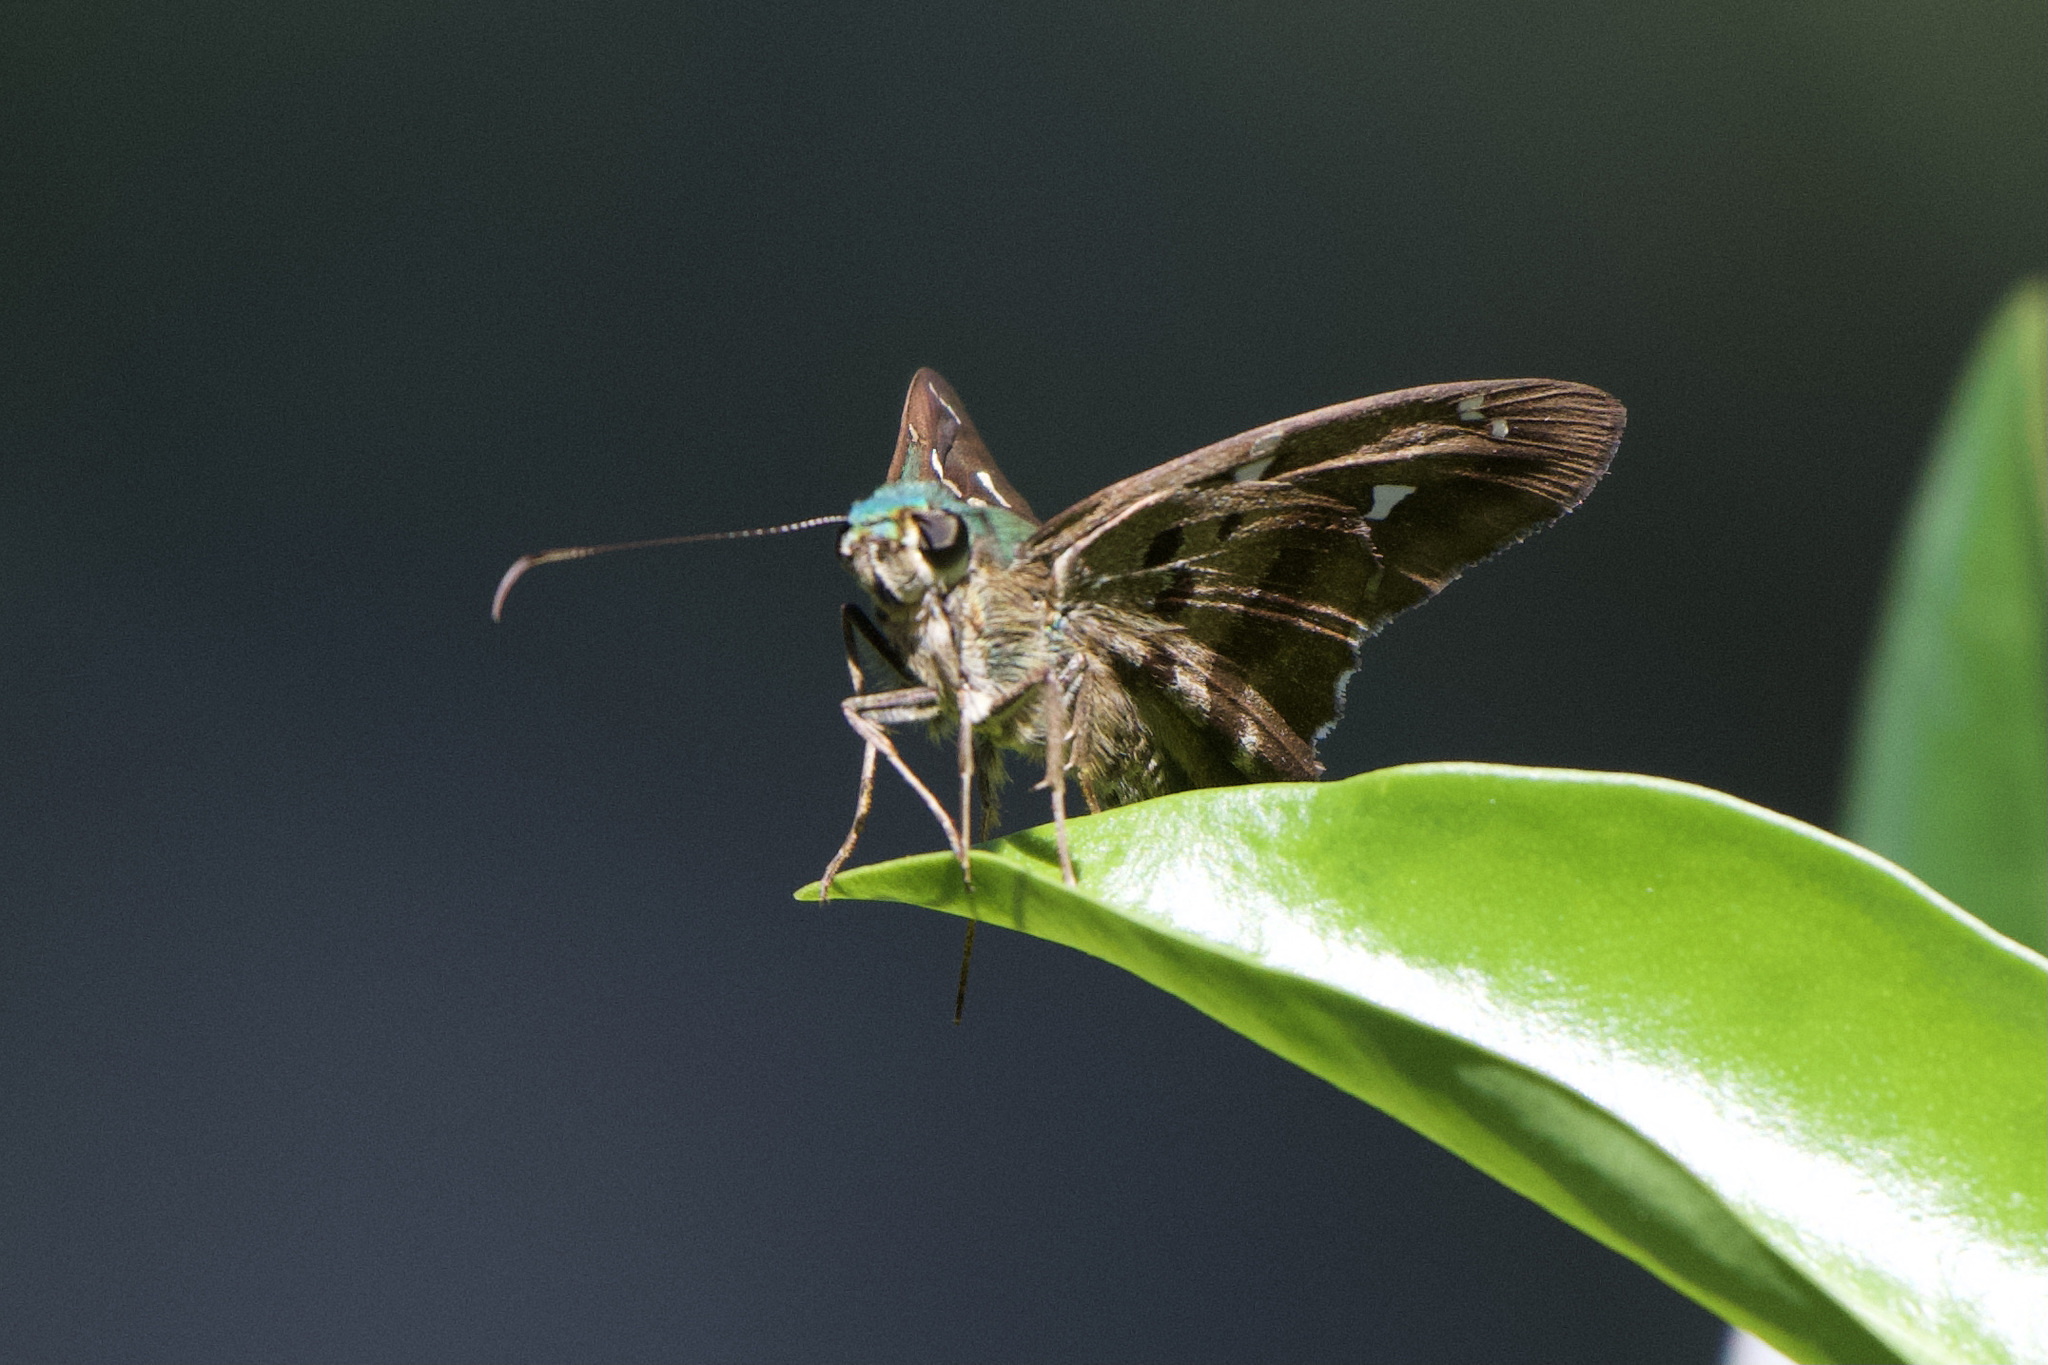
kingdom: Animalia
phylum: Arthropoda
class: Insecta
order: Lepidoptera
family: Hesperiidae
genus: Urbanus
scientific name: Urbanus proteus
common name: Long-tailed skipper
